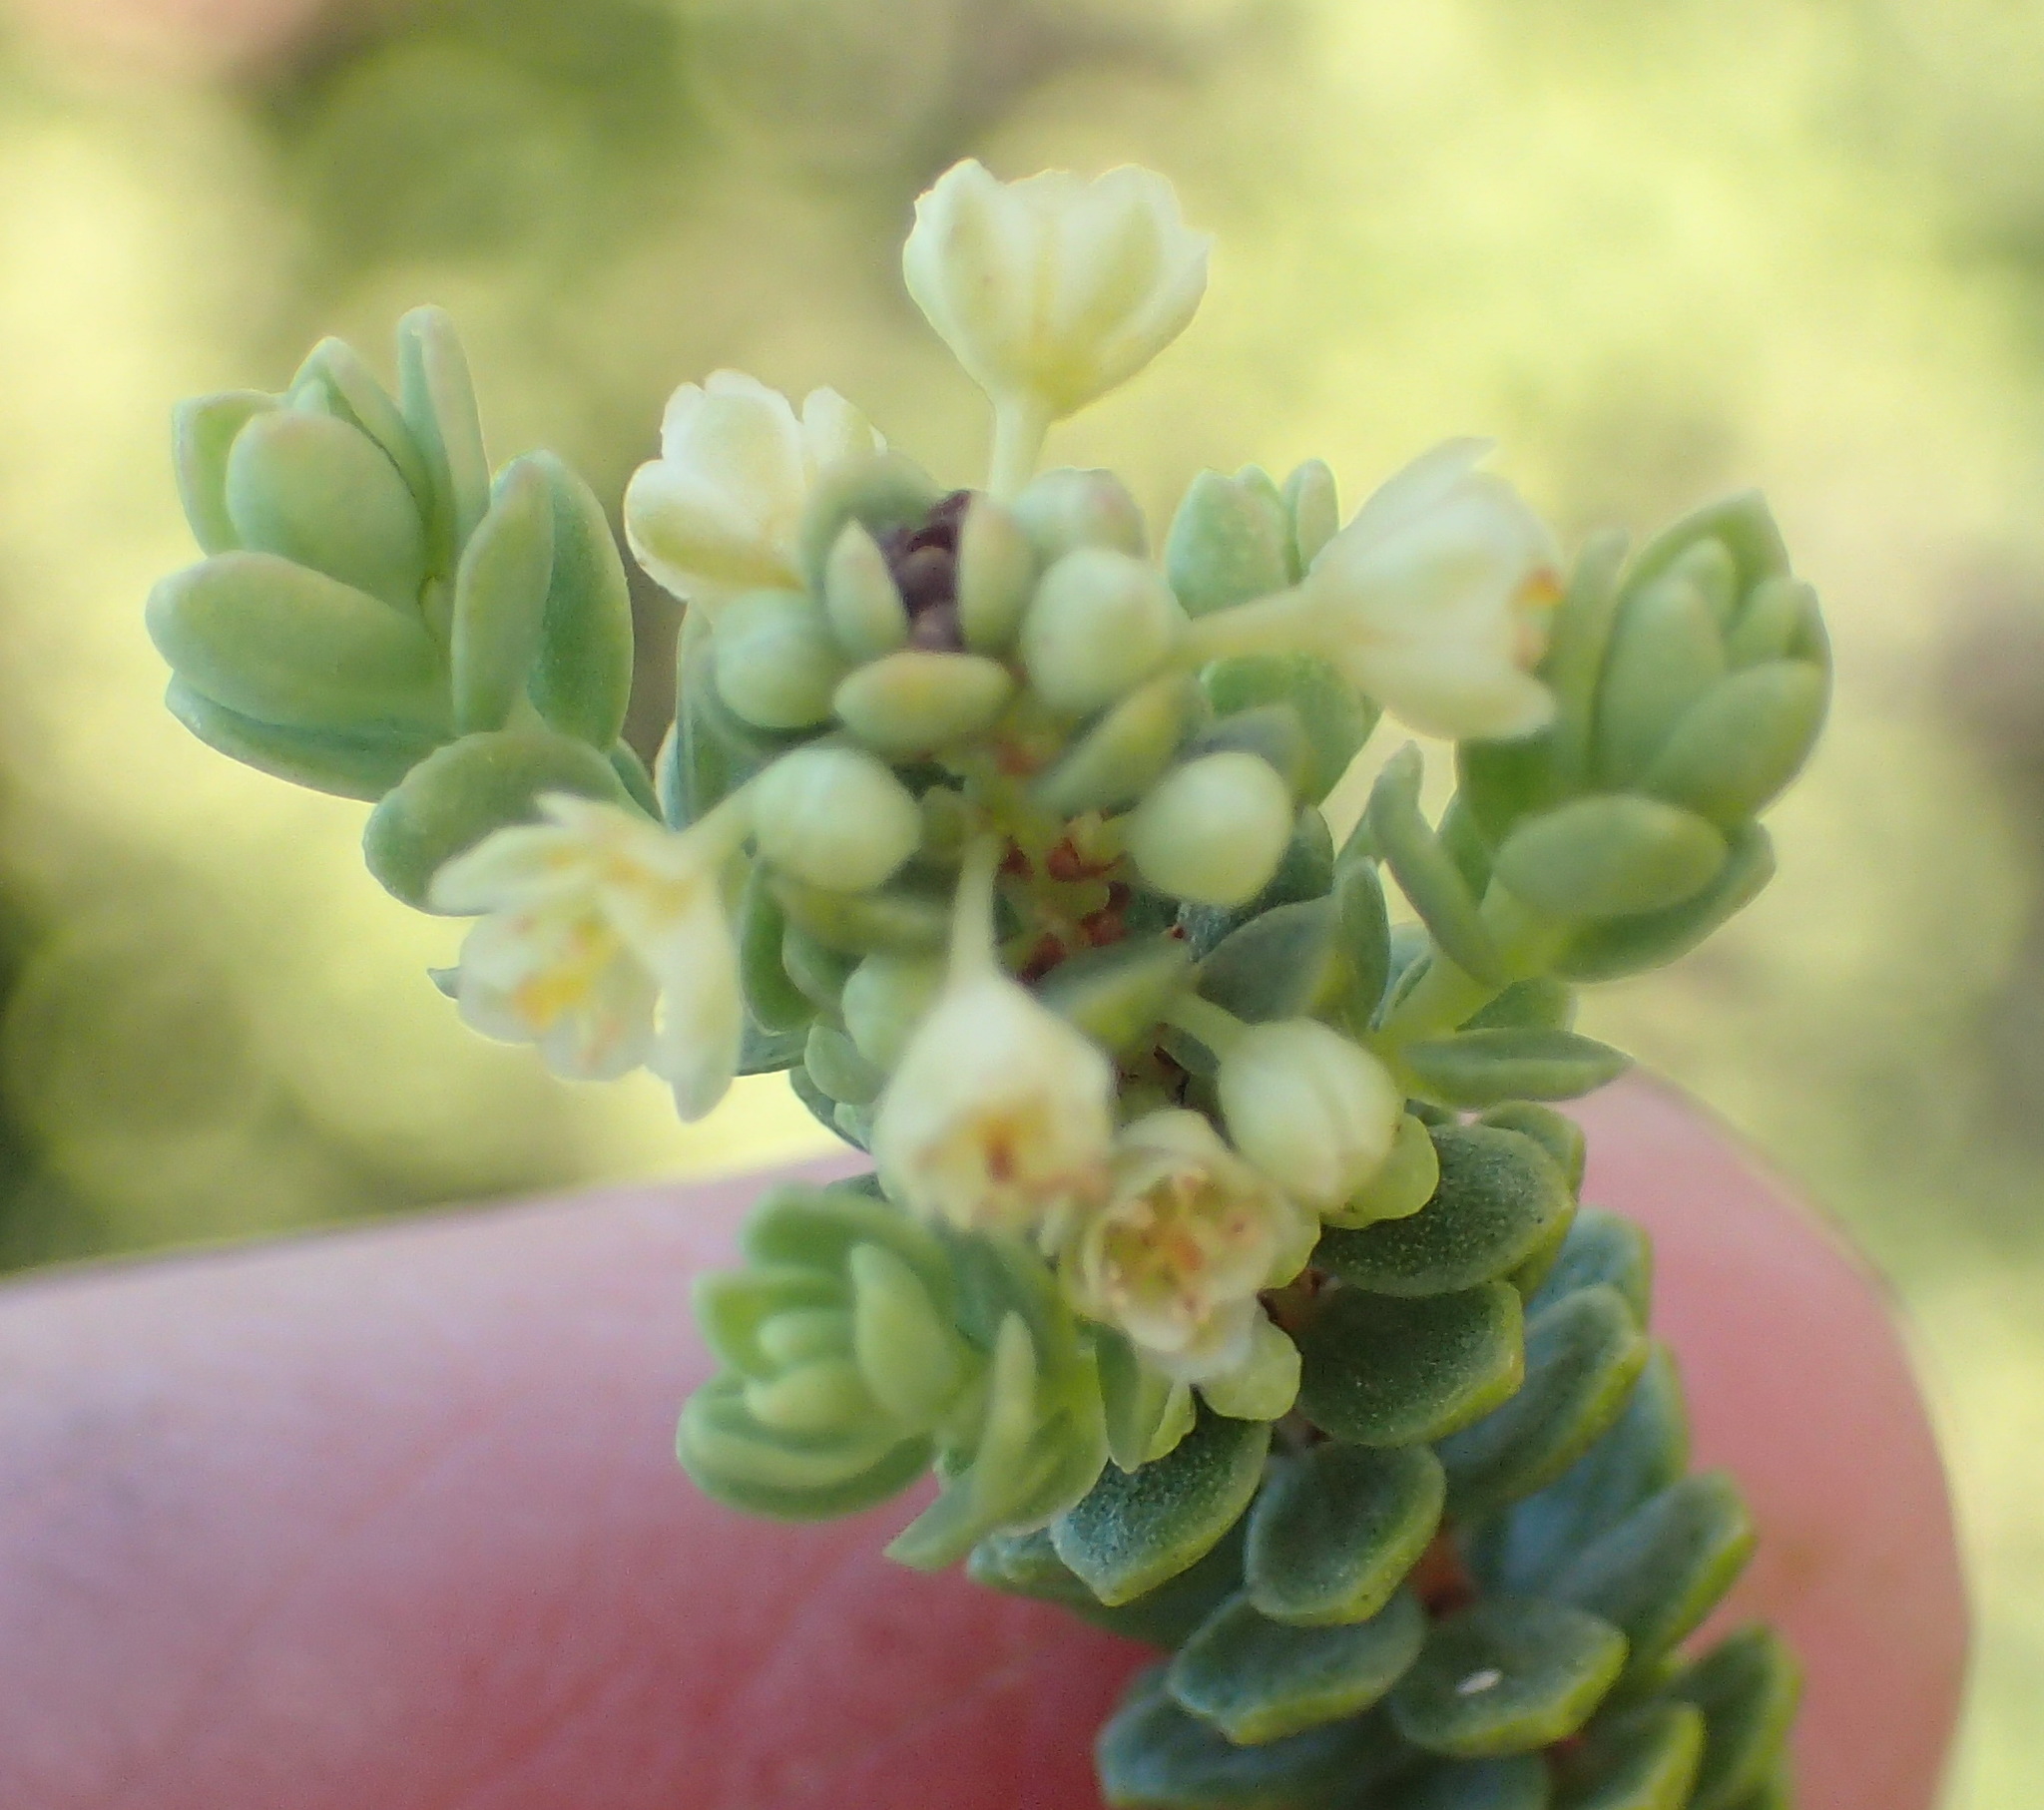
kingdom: Plantae
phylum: Tracheophyta
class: Magnoliopsida
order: Malpighiales
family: Peraceae
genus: Clutia
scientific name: Clutia laxa
